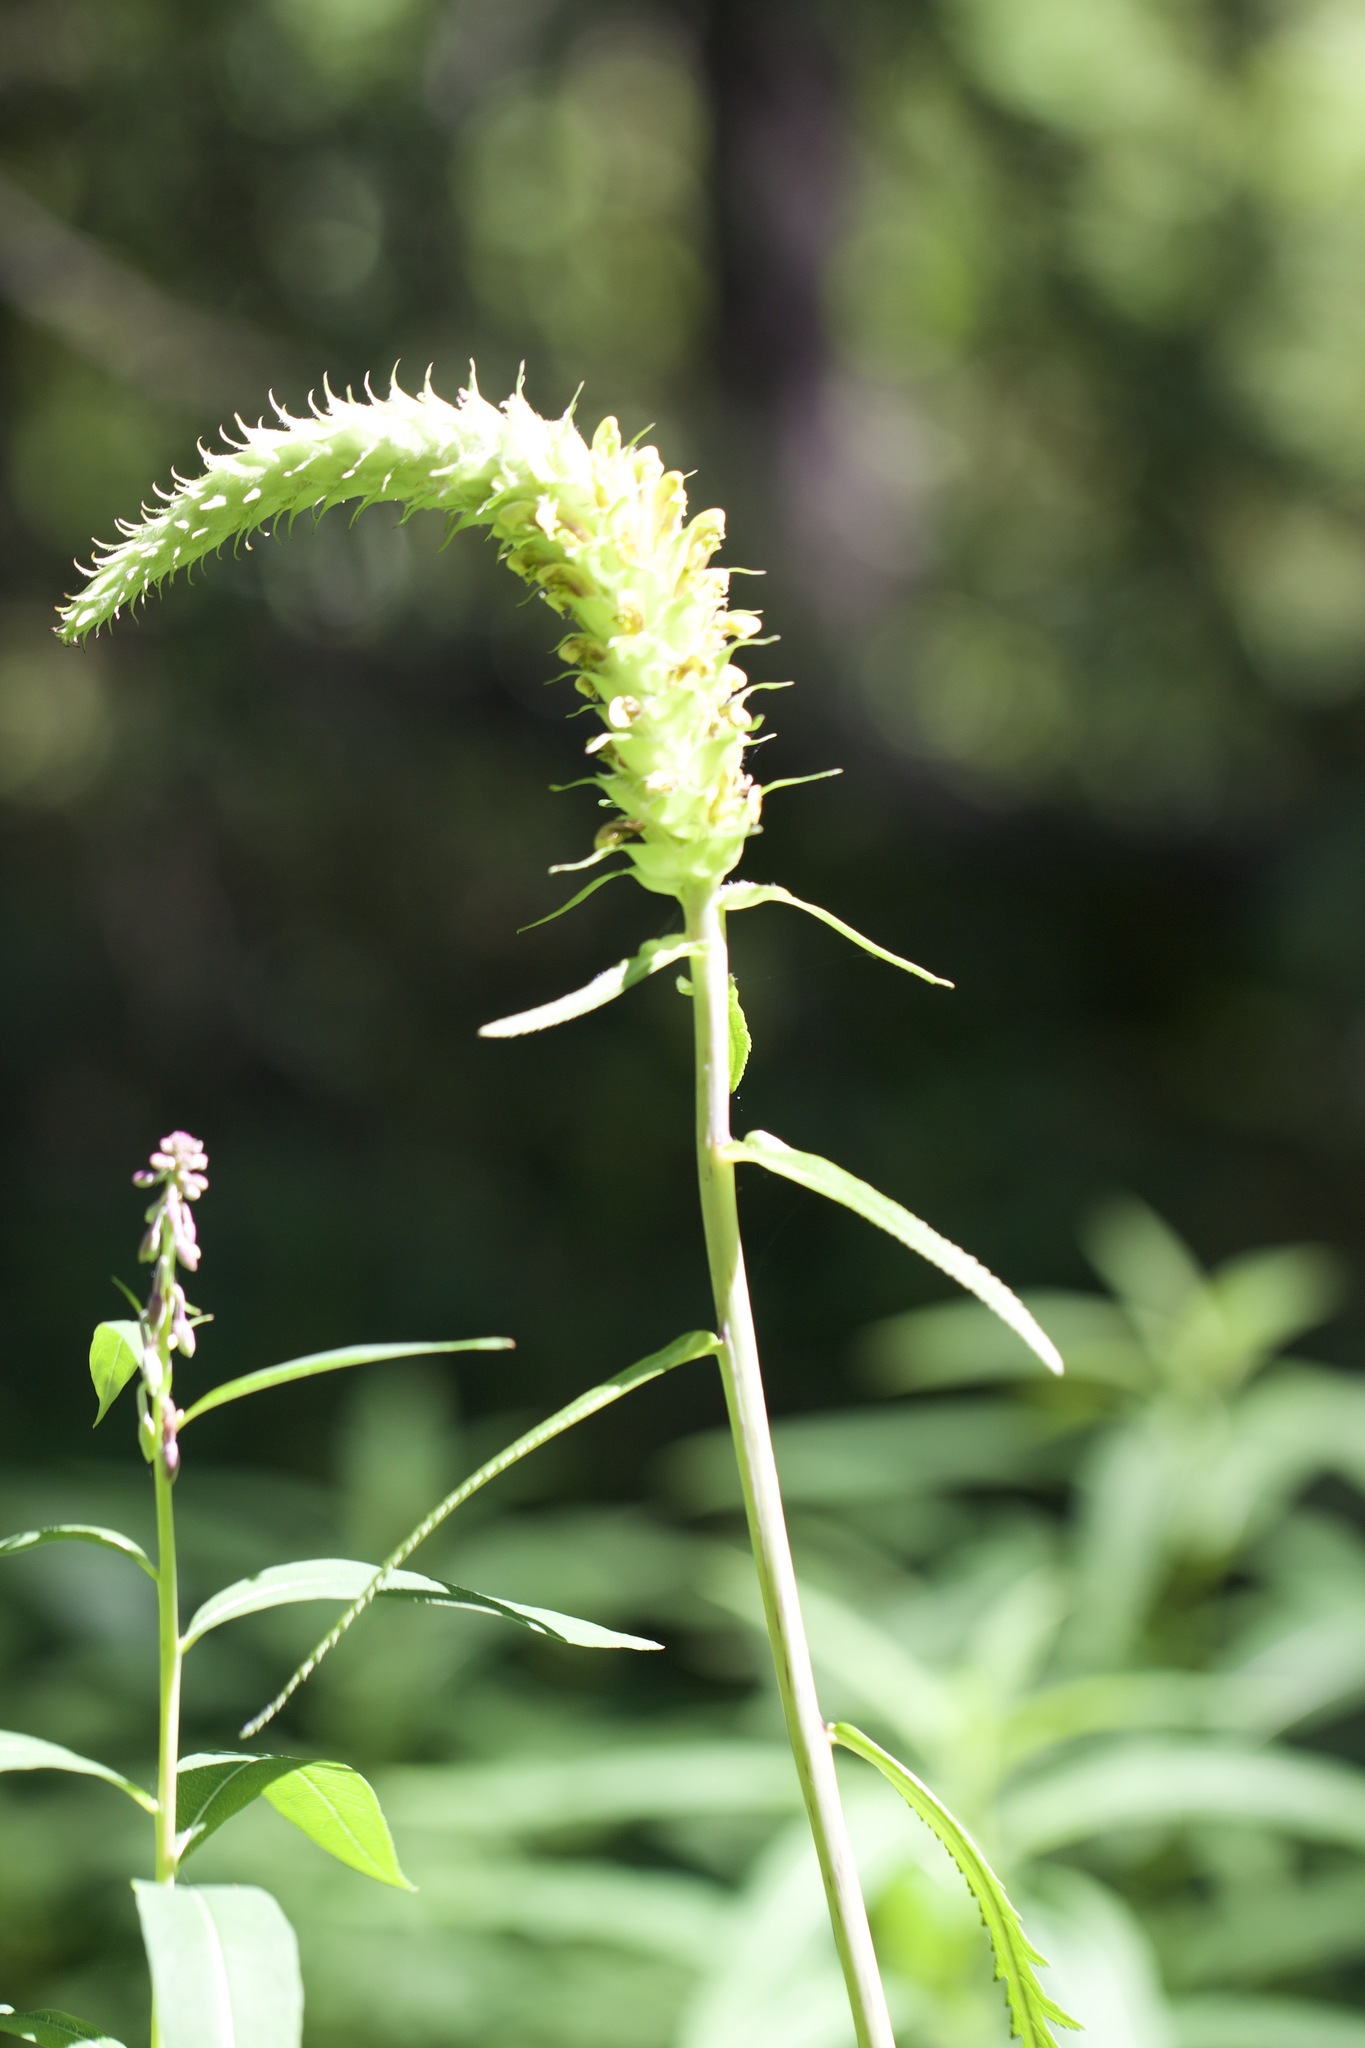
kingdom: Plantae
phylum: Tracheophyta
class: Magnoliopsida
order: Lamiales
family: Orobanchaceae
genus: Pedicularis
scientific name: Pedicularis bracteosa
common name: Bracted lousewort
